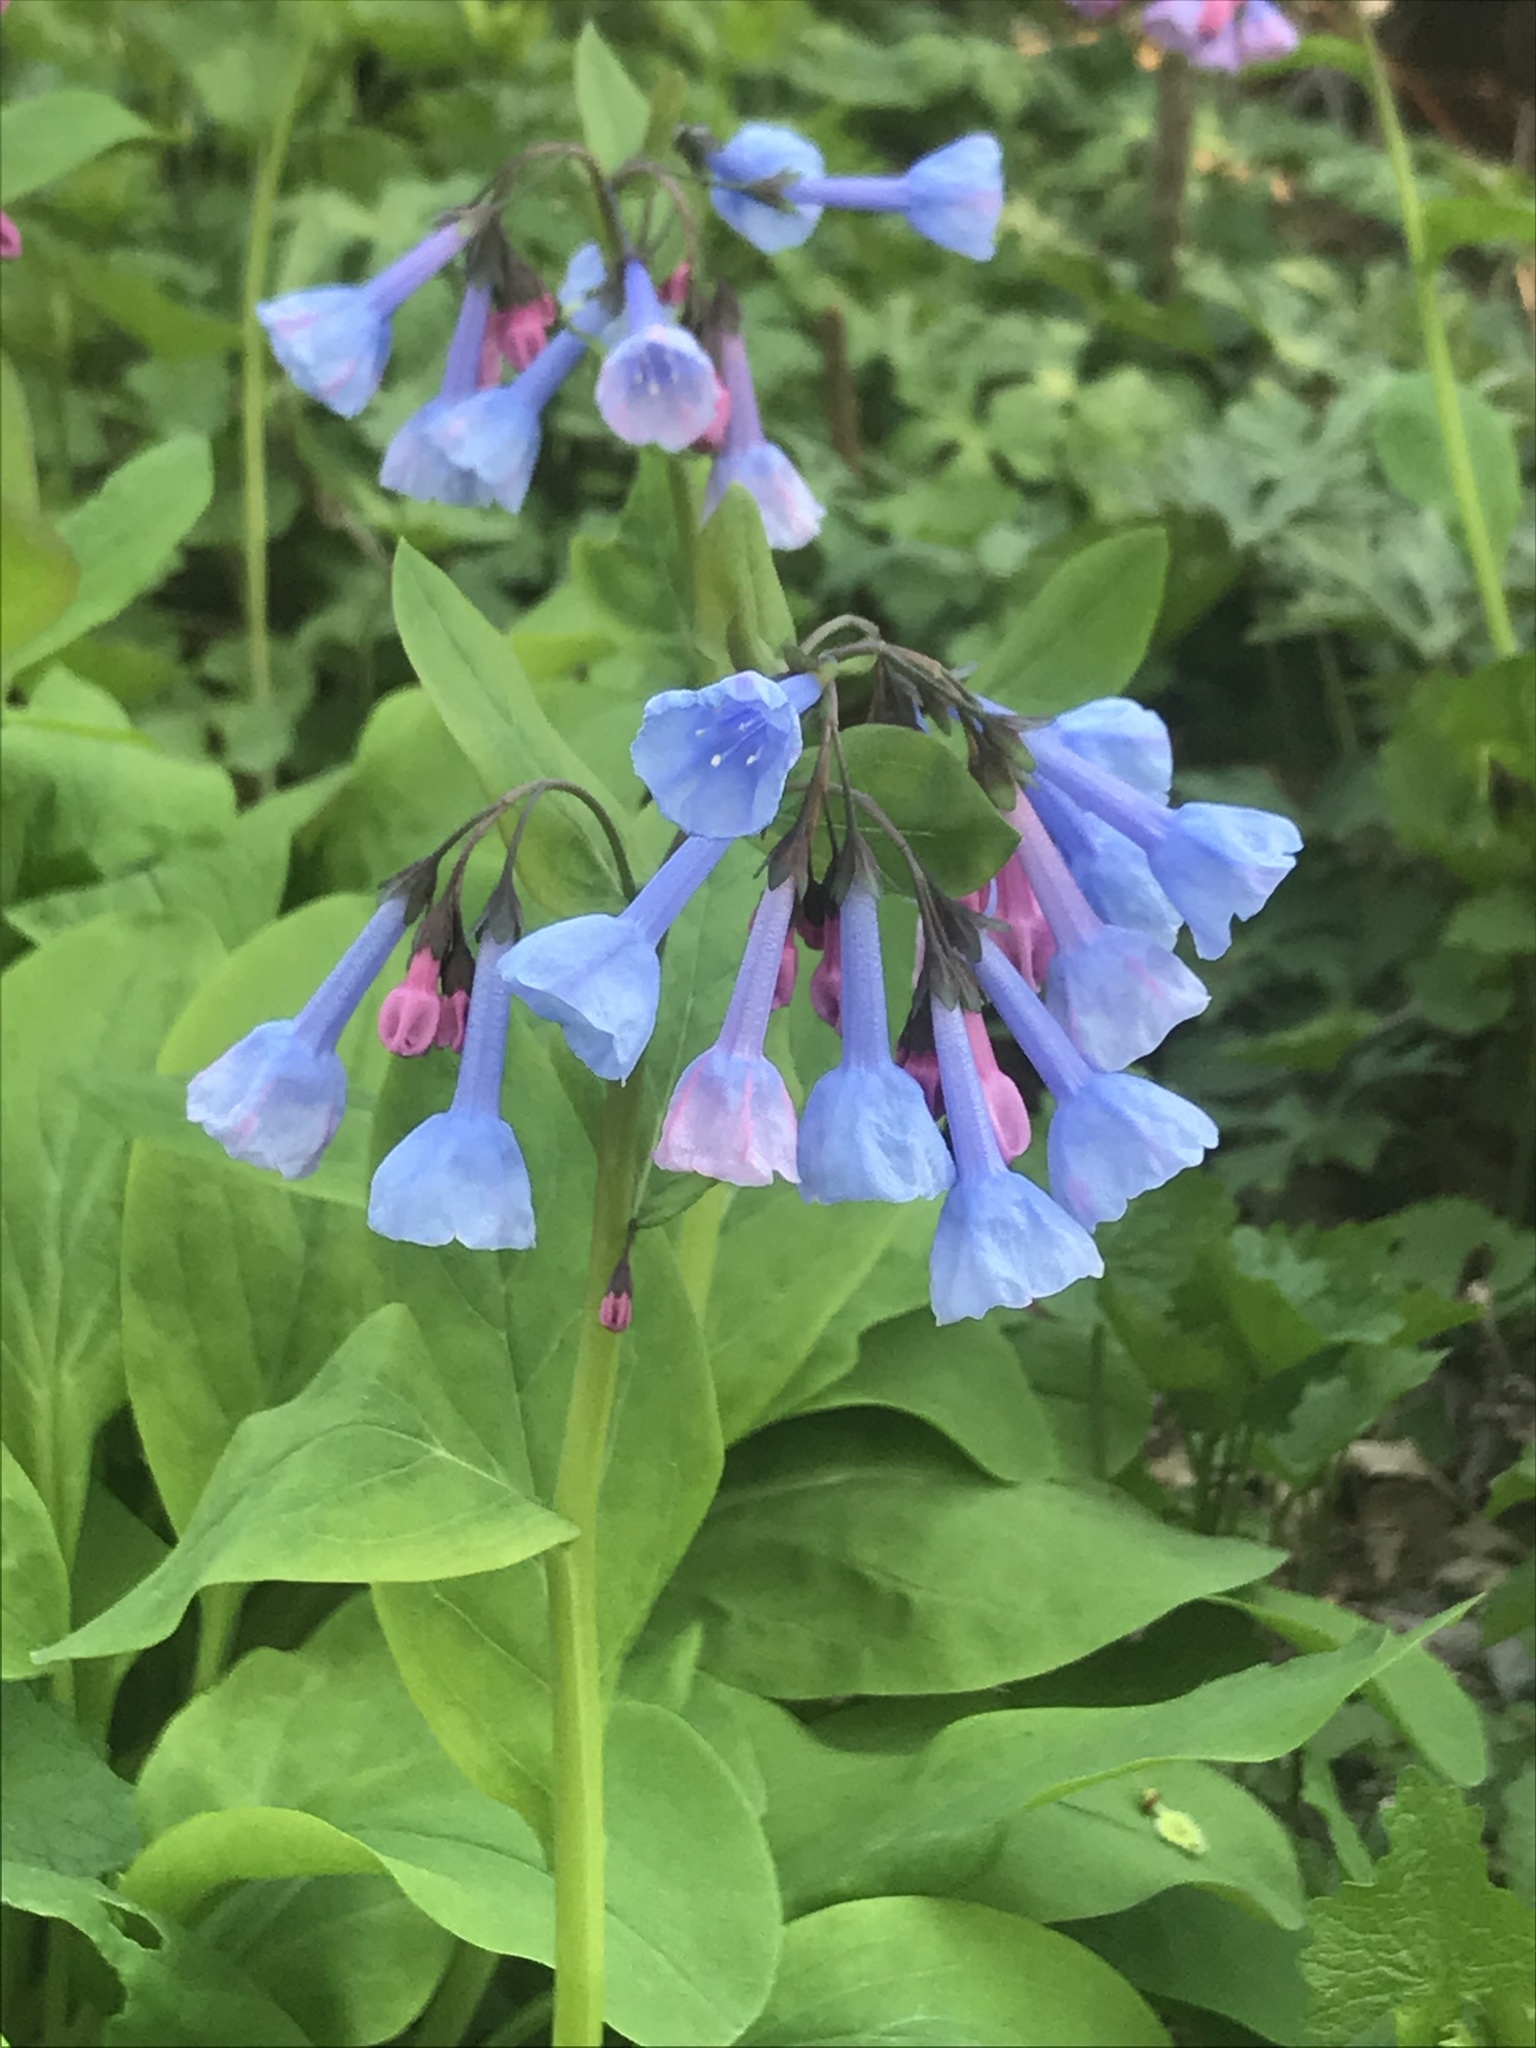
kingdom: Plantae
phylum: Tracheophyta
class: Magnoliopsida
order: Boraginales
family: Boraginaceae
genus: Mertensia
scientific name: Mertensia virginica
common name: Virginia bluebells
